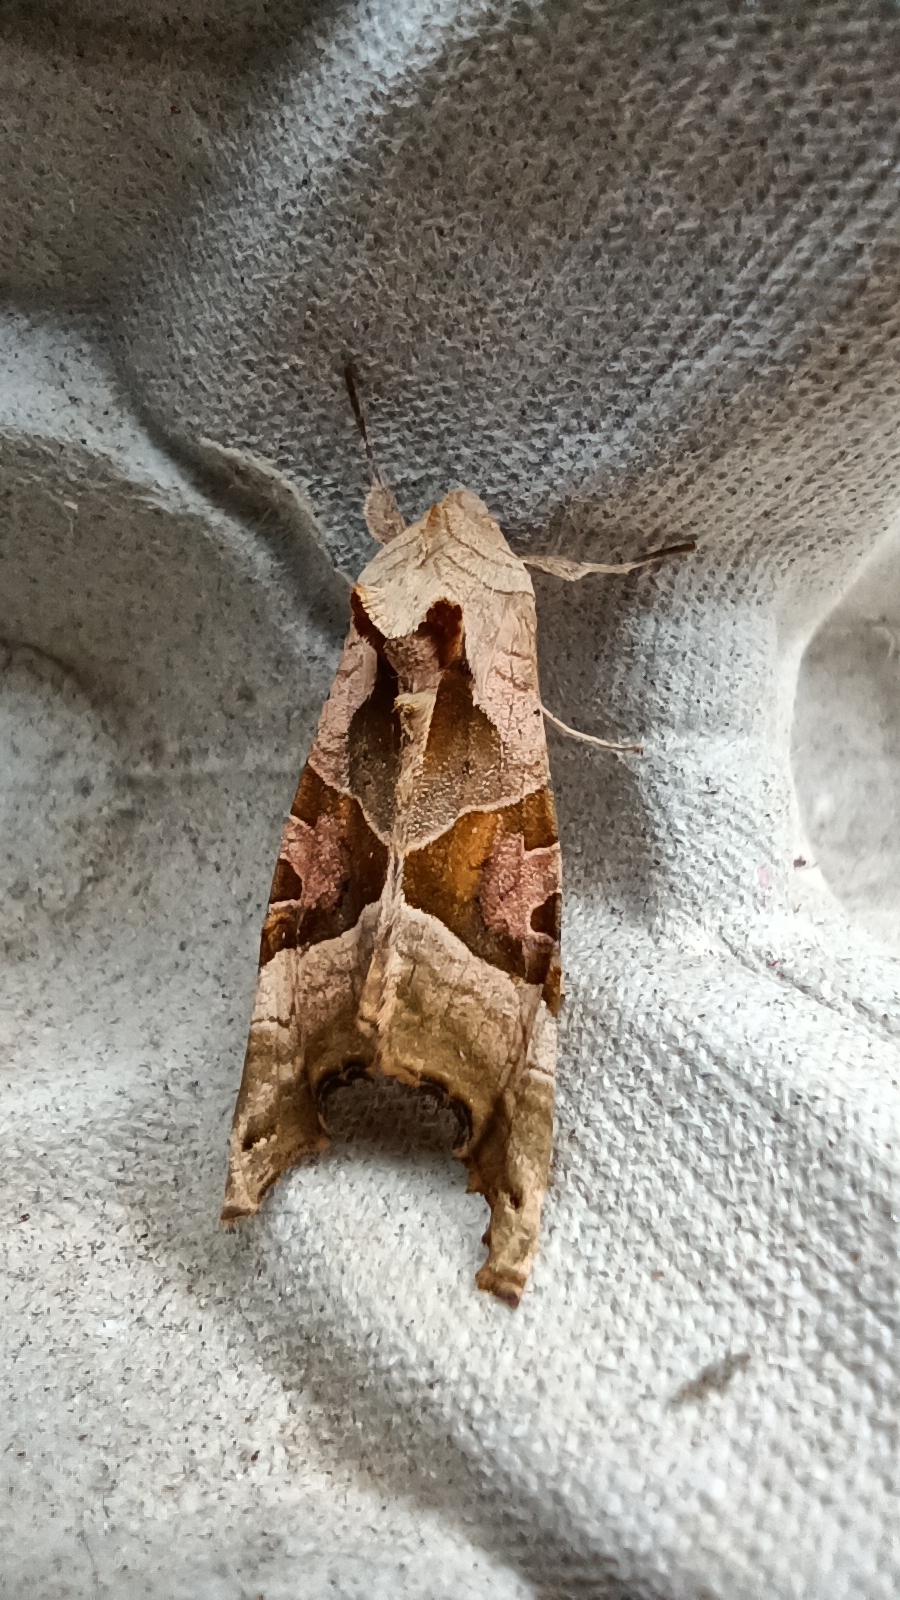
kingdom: Animalia
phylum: Arthropoda
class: Insecta
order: Lepidoptera
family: Noctuidae
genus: Phlogophora
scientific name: Phlogophora meticulosa
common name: Angle shades
